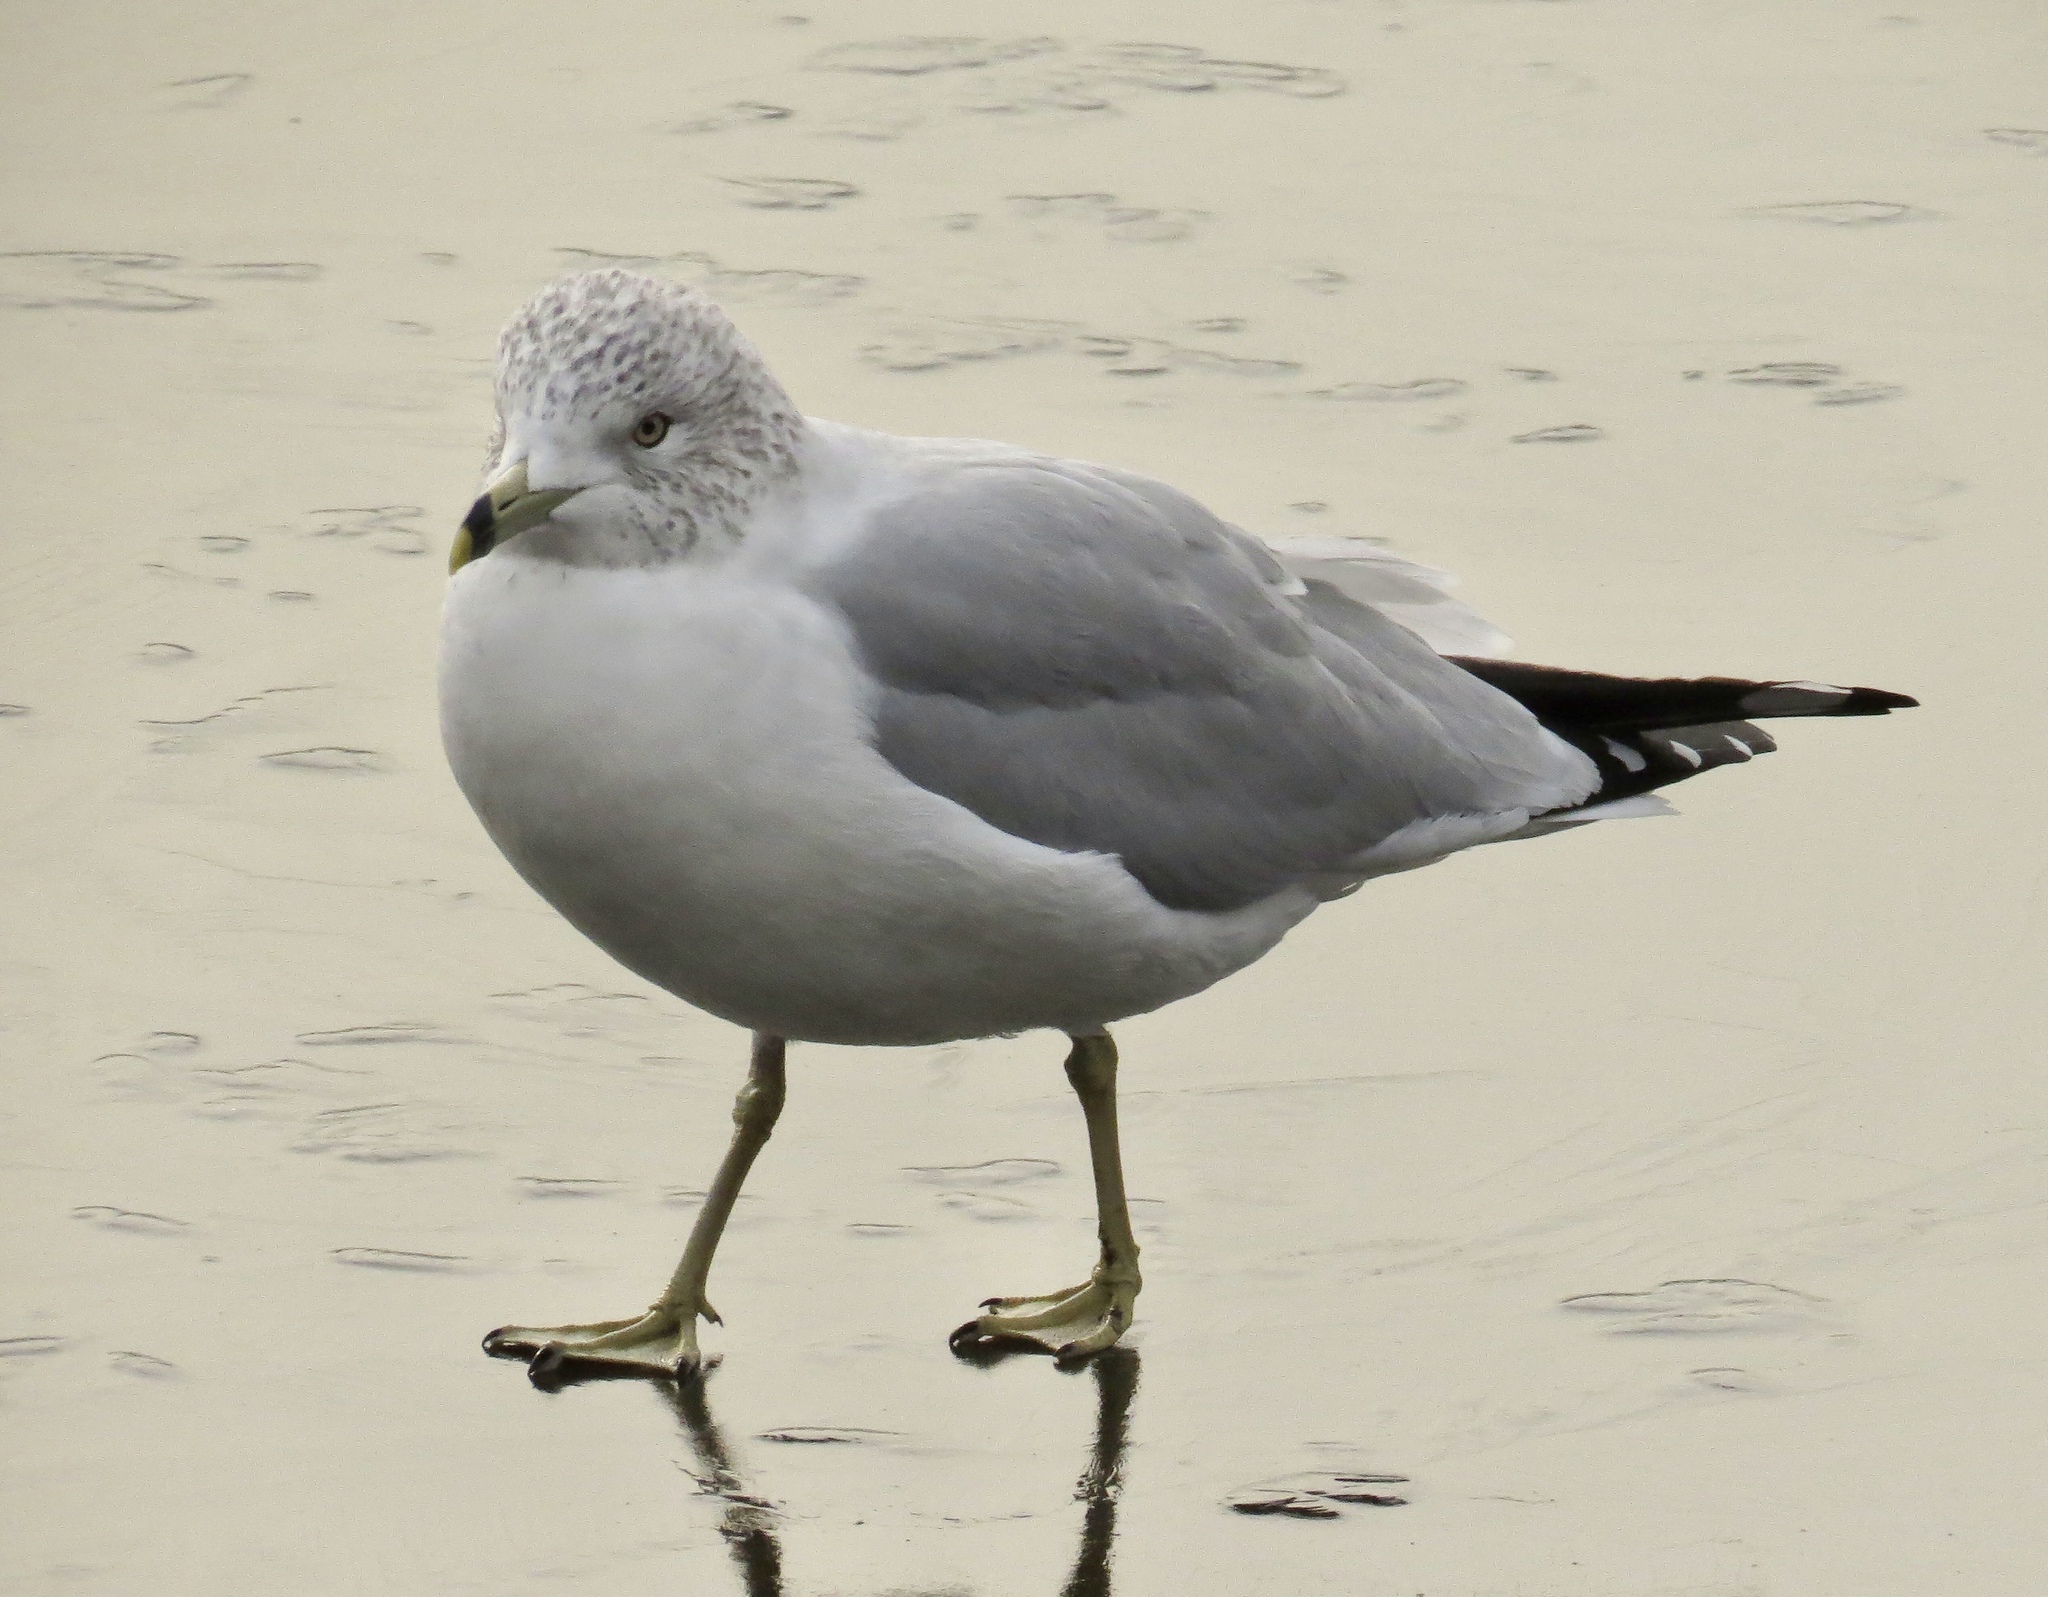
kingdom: Animalia
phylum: Chordata
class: Aves
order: Charadriiformes
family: Laridae
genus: Larus
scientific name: Larus delawarensis
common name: Ring-billed gull
